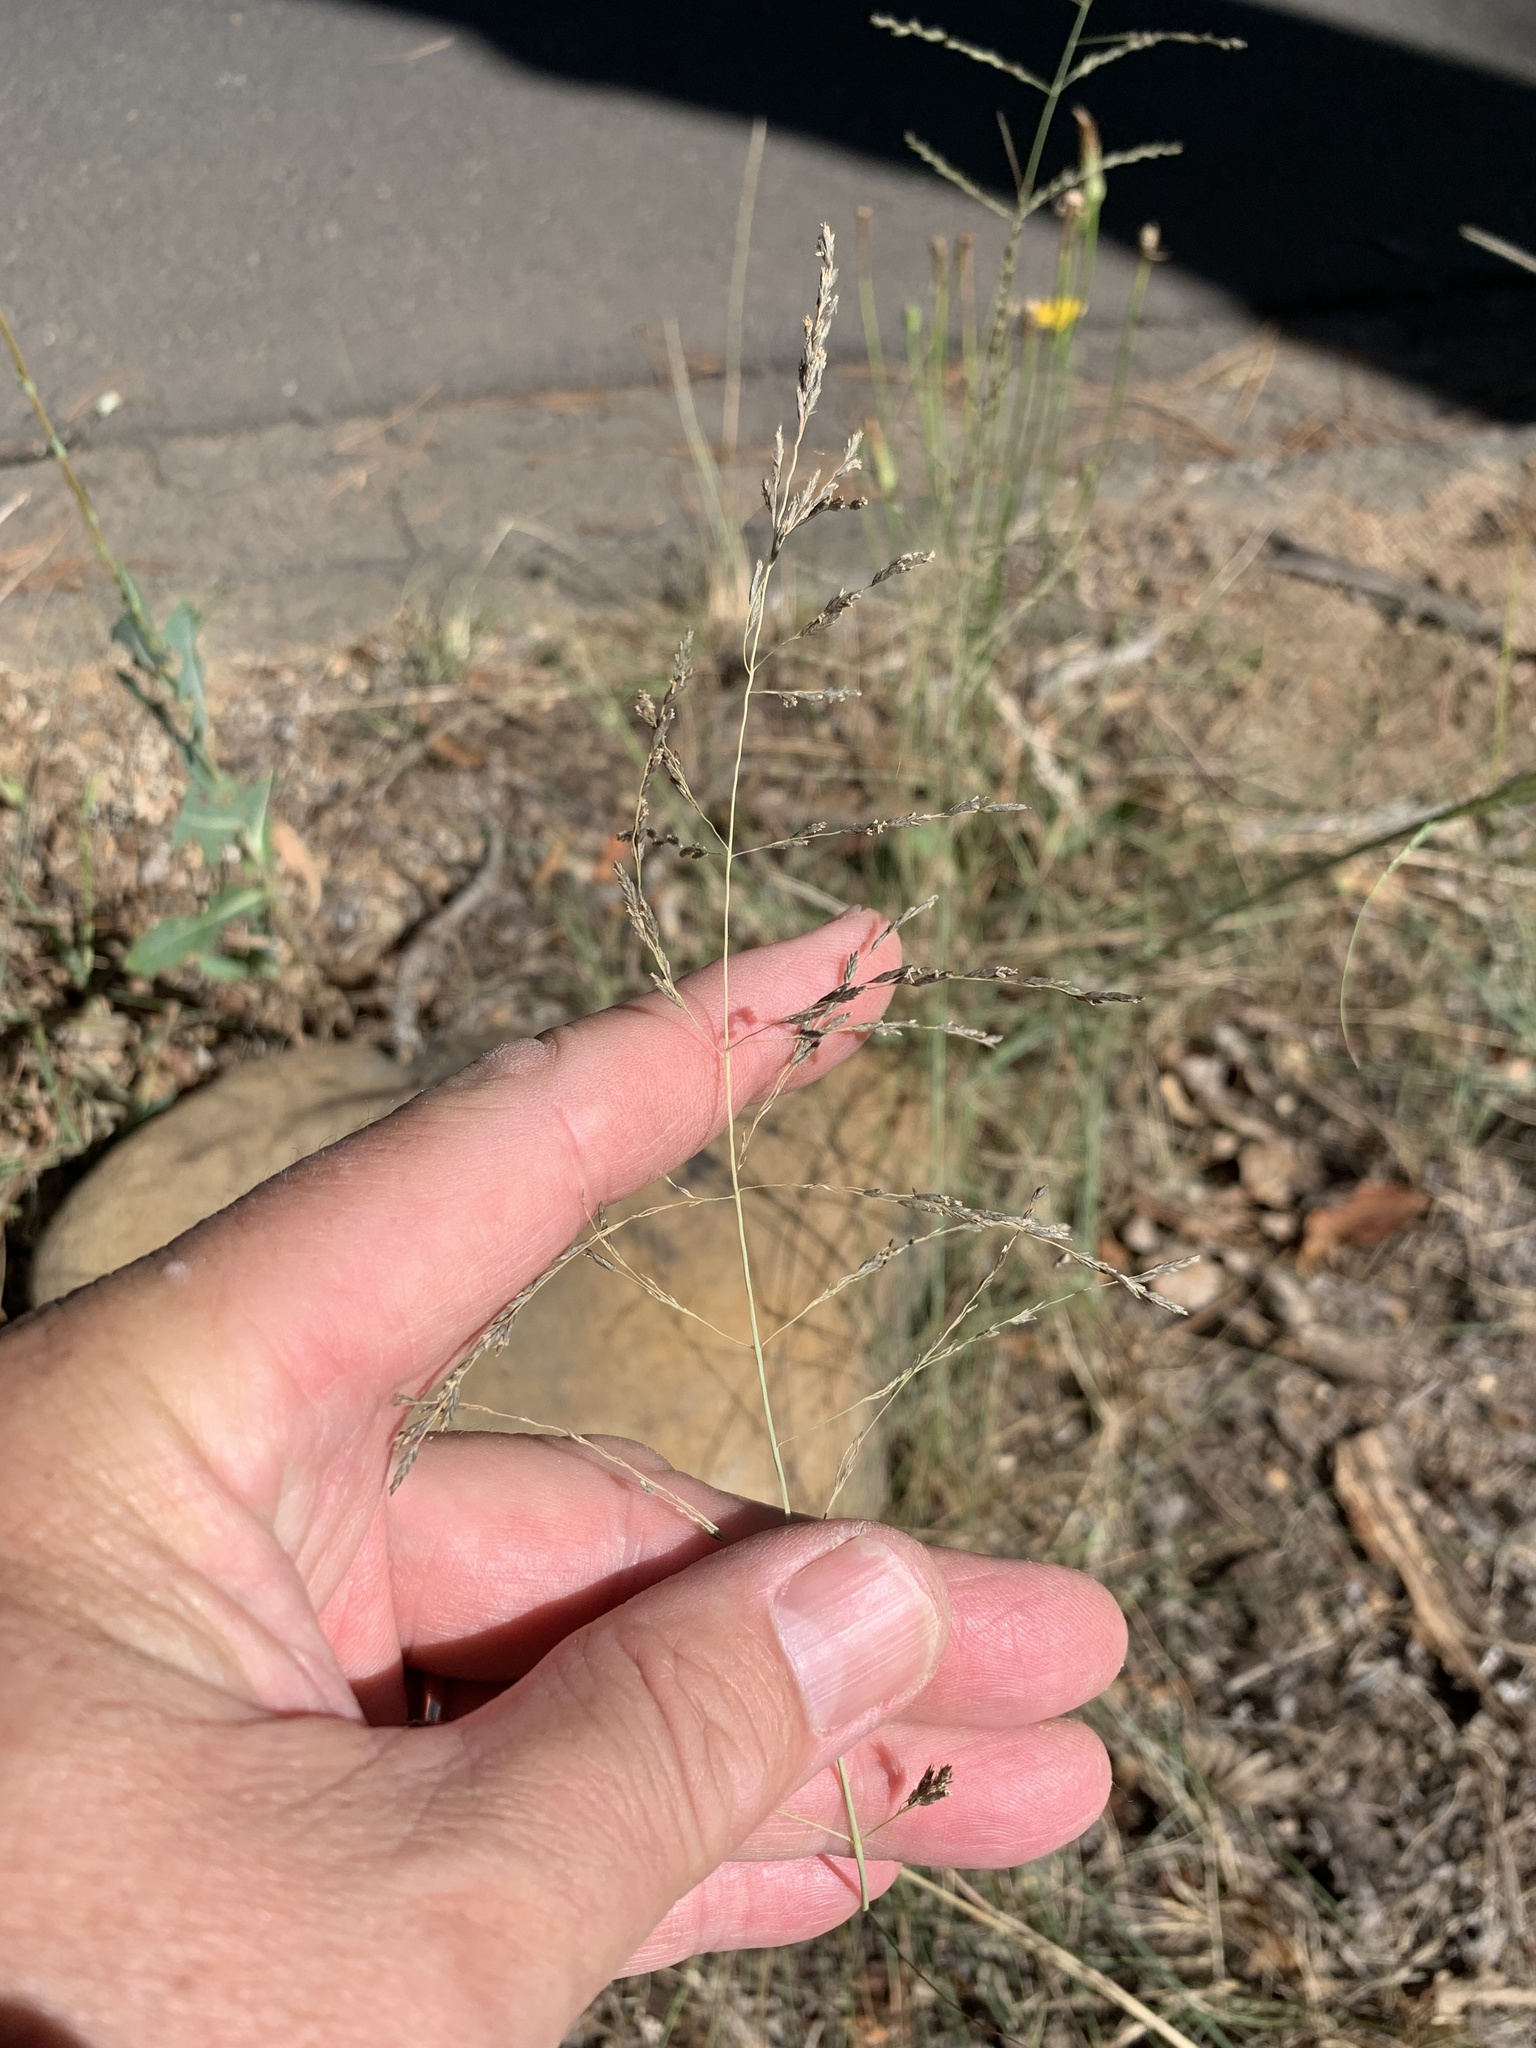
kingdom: Plantae
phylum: Tracheophyta
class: Liliopsida
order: Poales
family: Poaceae
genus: Eragrostis
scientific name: Eragrostis curvula
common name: African love-grass
